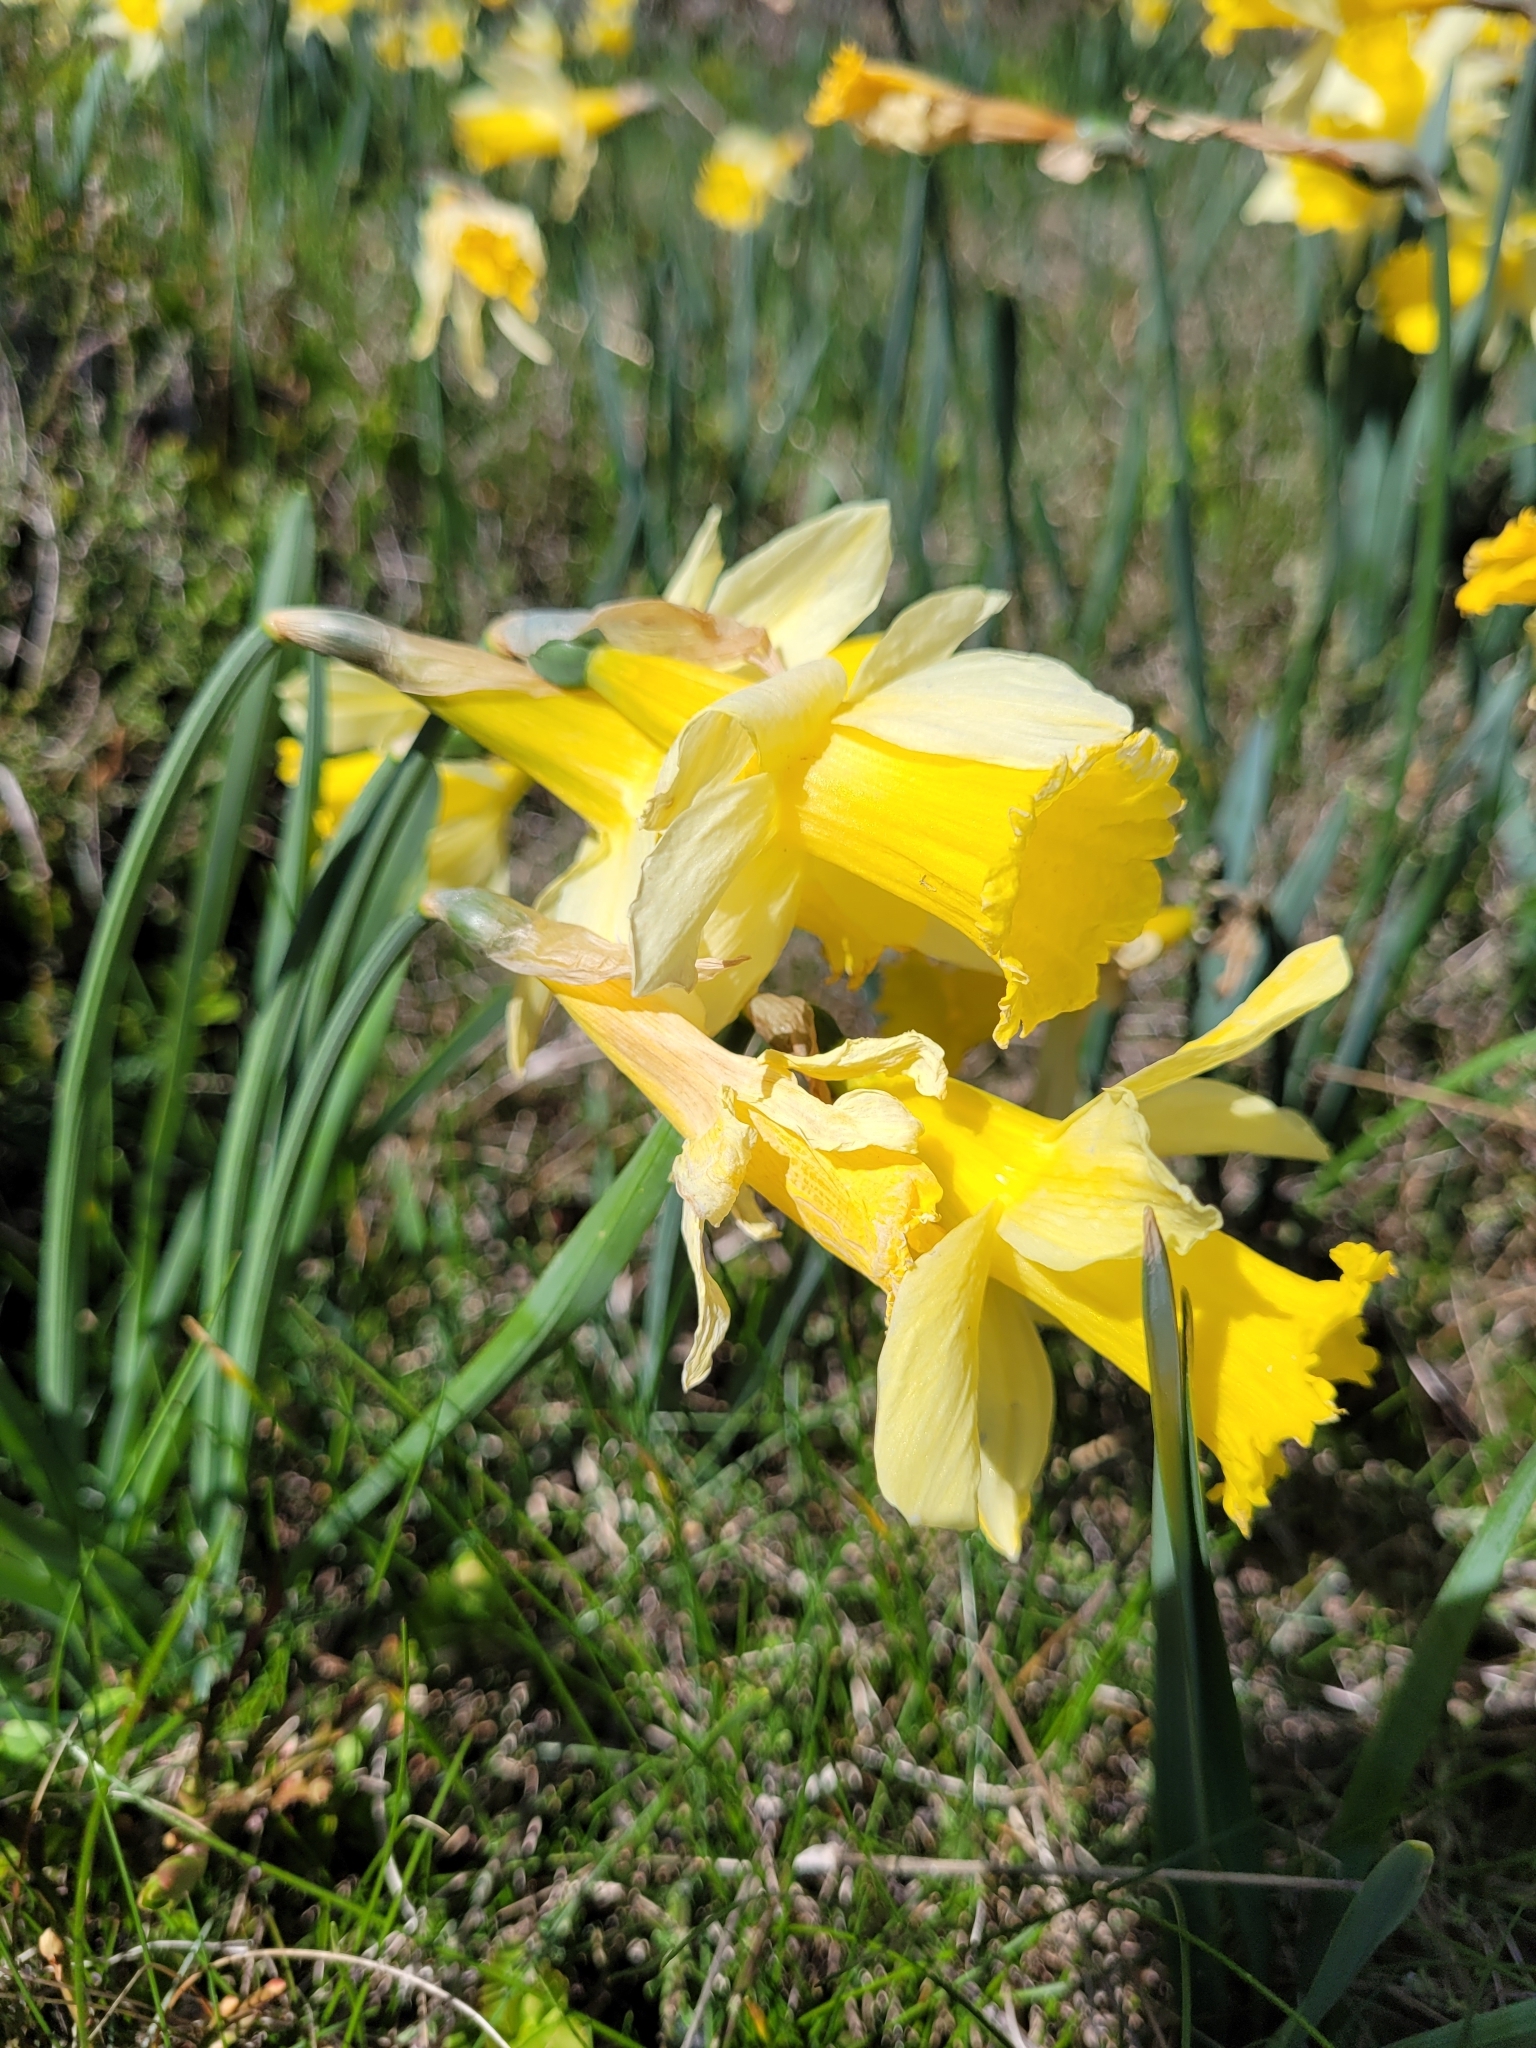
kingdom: Plantae
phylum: Tracheophyta
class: Liliopsida
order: Asparagales
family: Amaryllidaceae
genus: Narcissus
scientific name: Narcissus pseudonarcissus
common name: Daffodil
